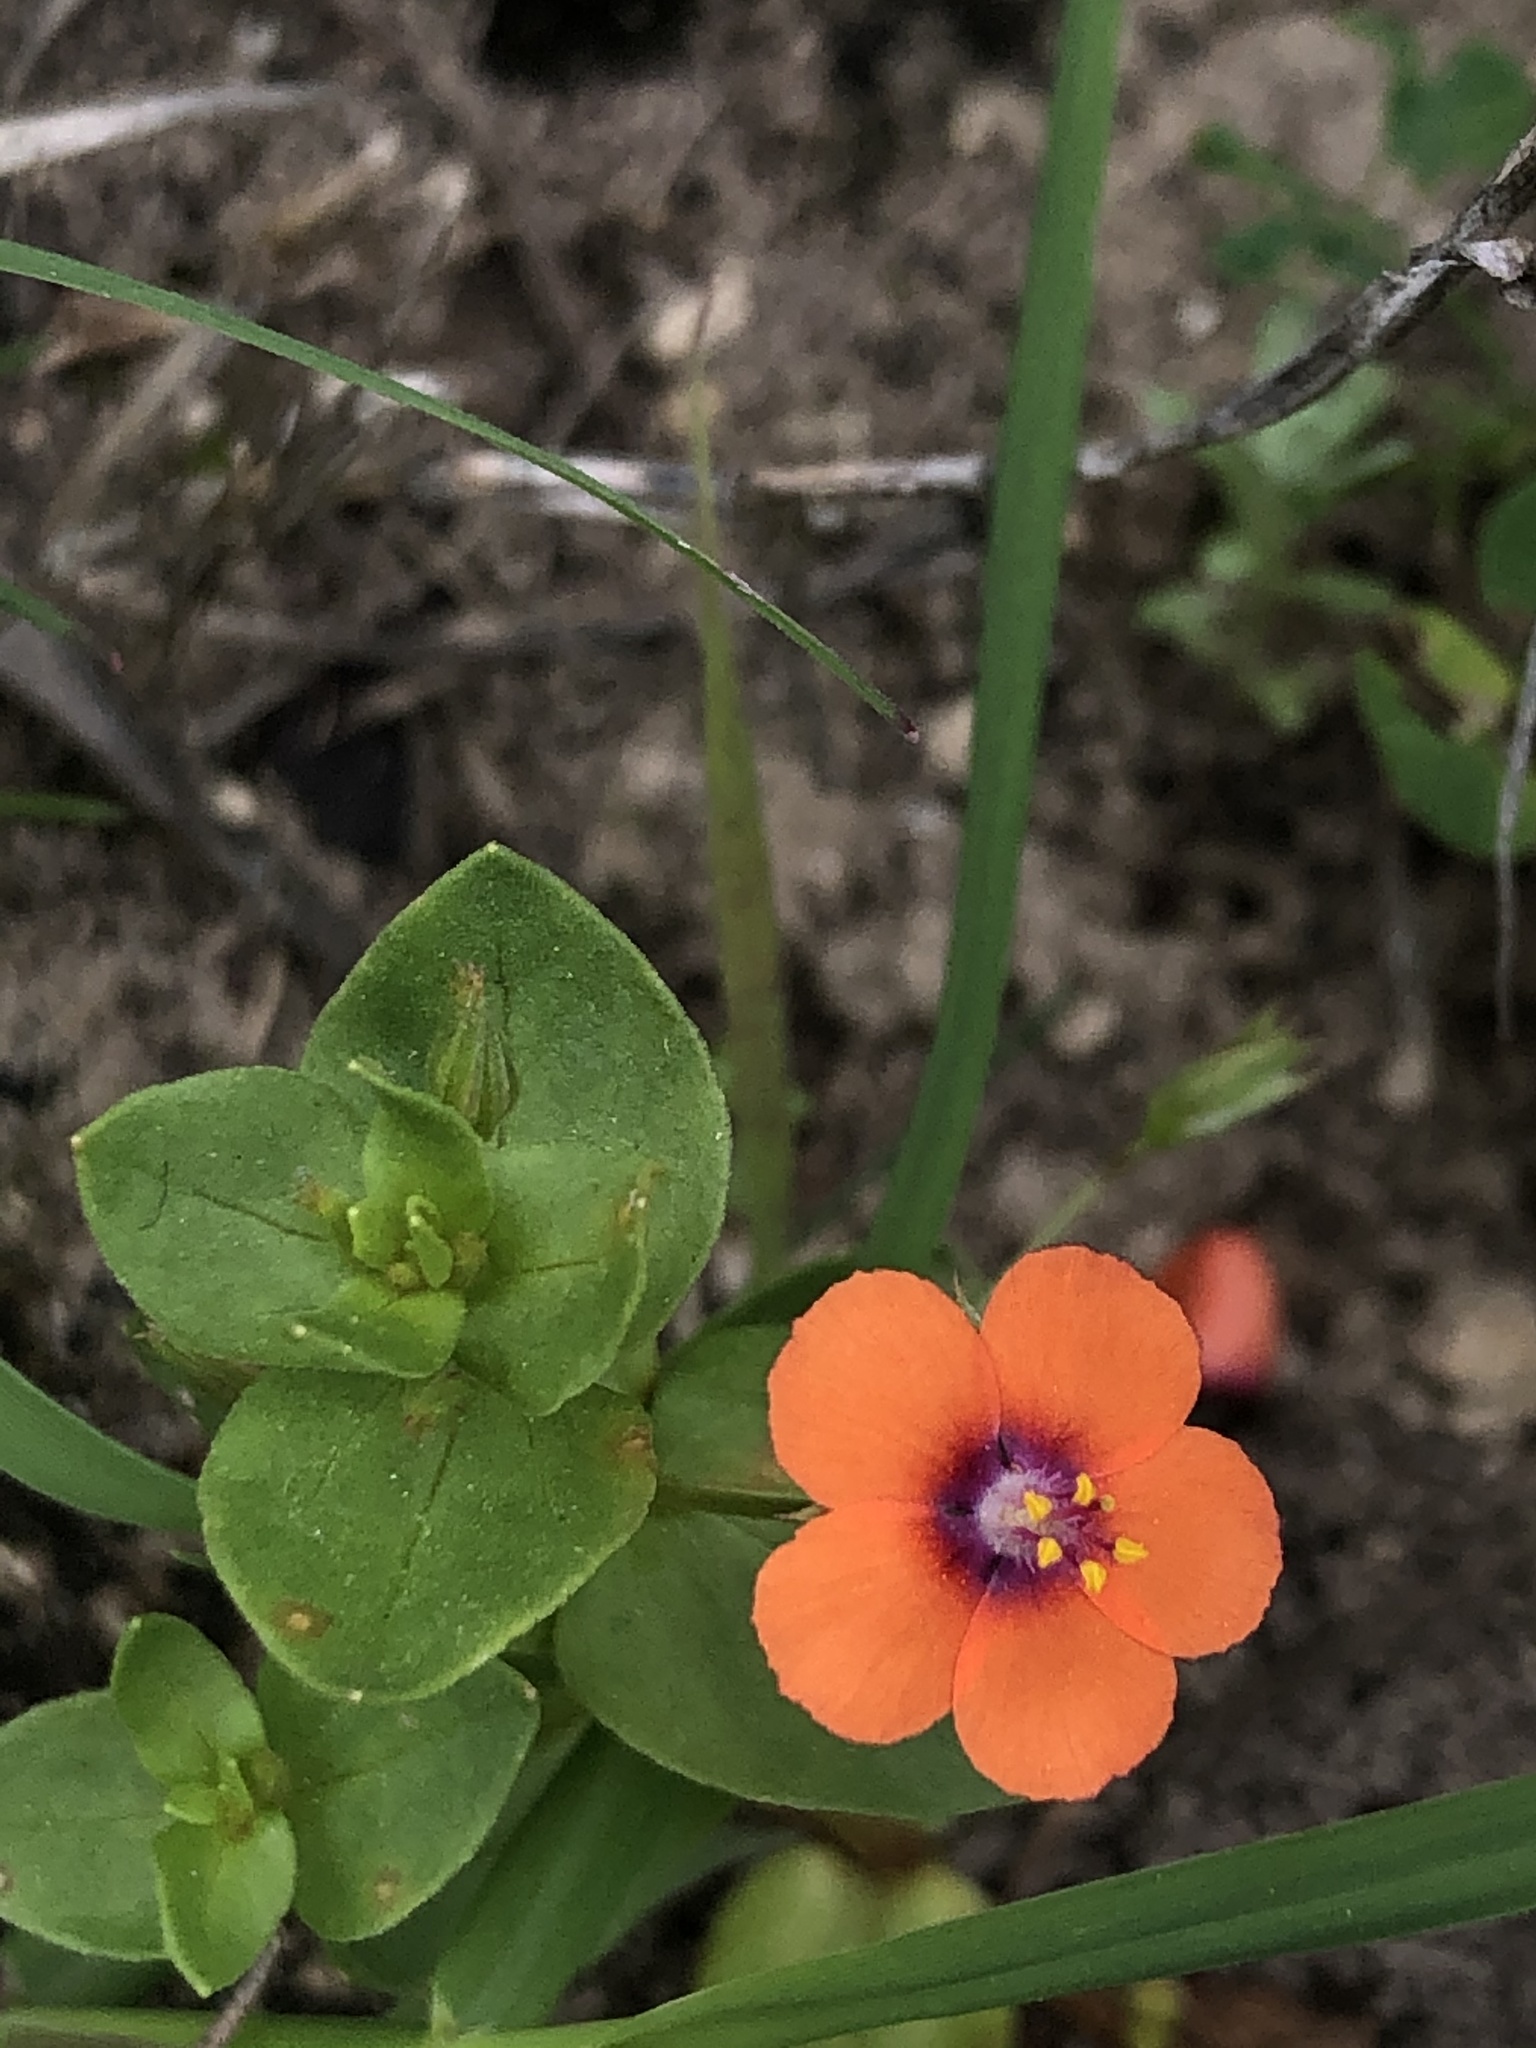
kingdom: Plantae
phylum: Tracheophyta
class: Magnoliopsida
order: Ericales
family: Primulaceae
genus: Lysimachia
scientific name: Lysimachia arvensis
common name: Scarlet pimpernel
